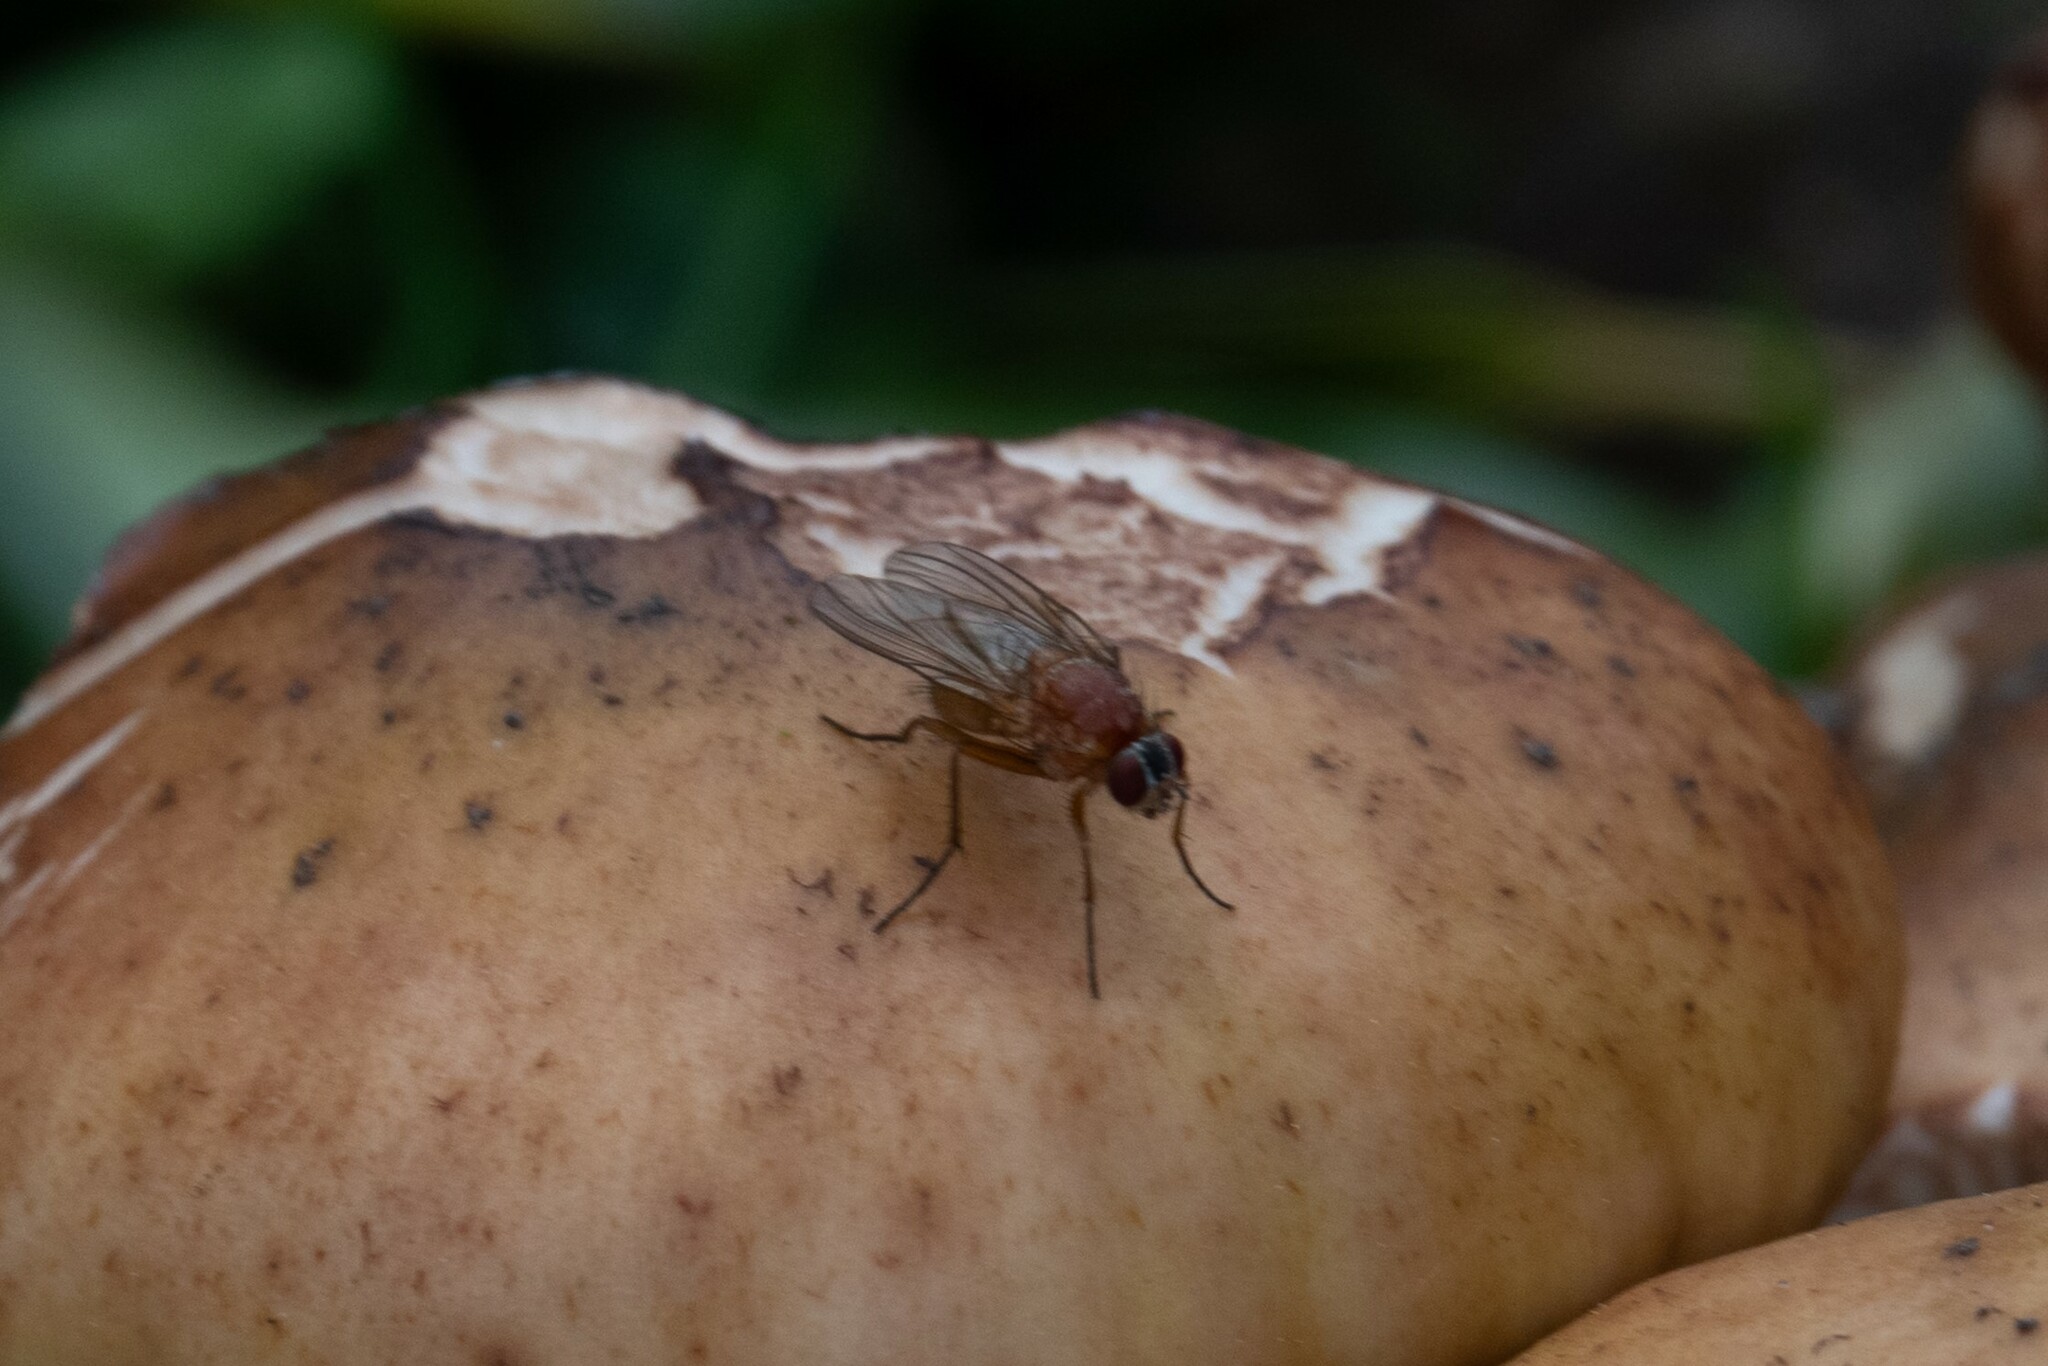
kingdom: Animalia
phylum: Arthropoda
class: Insecta
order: Diptera
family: Muscidae
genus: Thricops
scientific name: Thricops diaphanus
